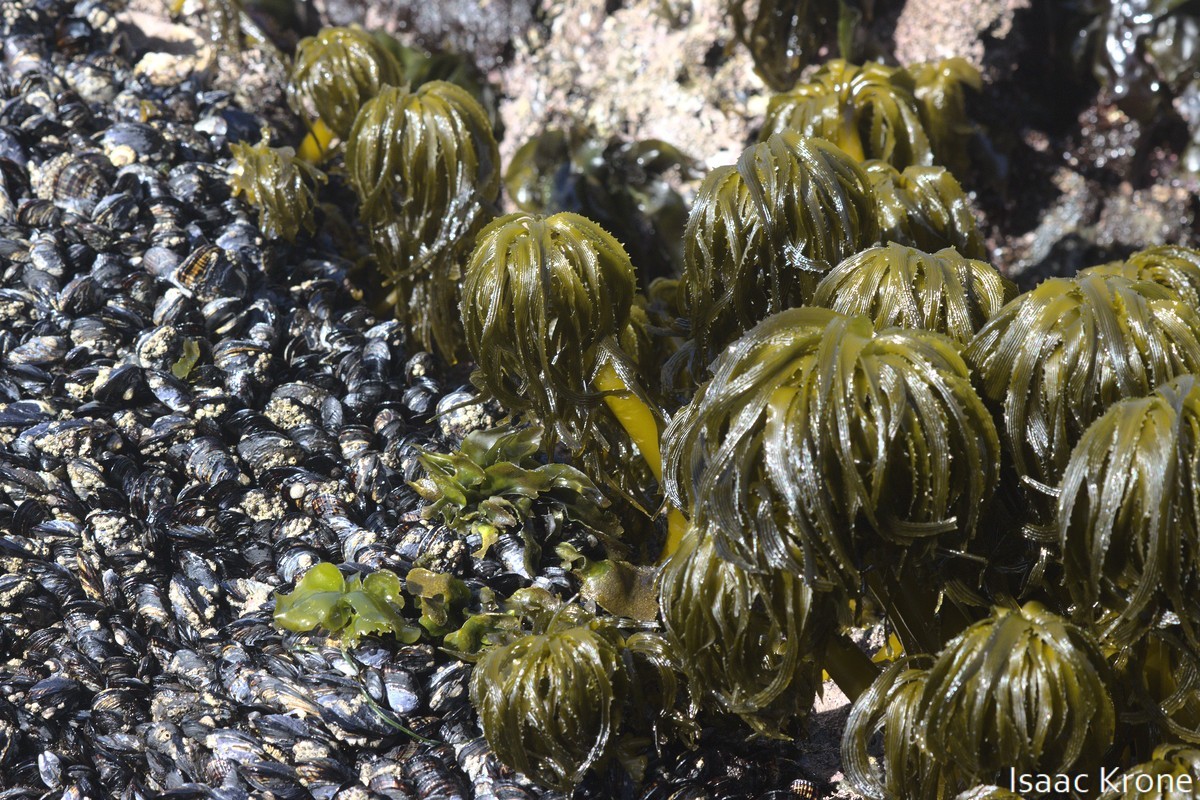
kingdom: Chromista
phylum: Ochrophyta
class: Phaeophyceae
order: Laminariales
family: Laminariaceae
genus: Postelsia
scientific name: Postelsia palmiformis
